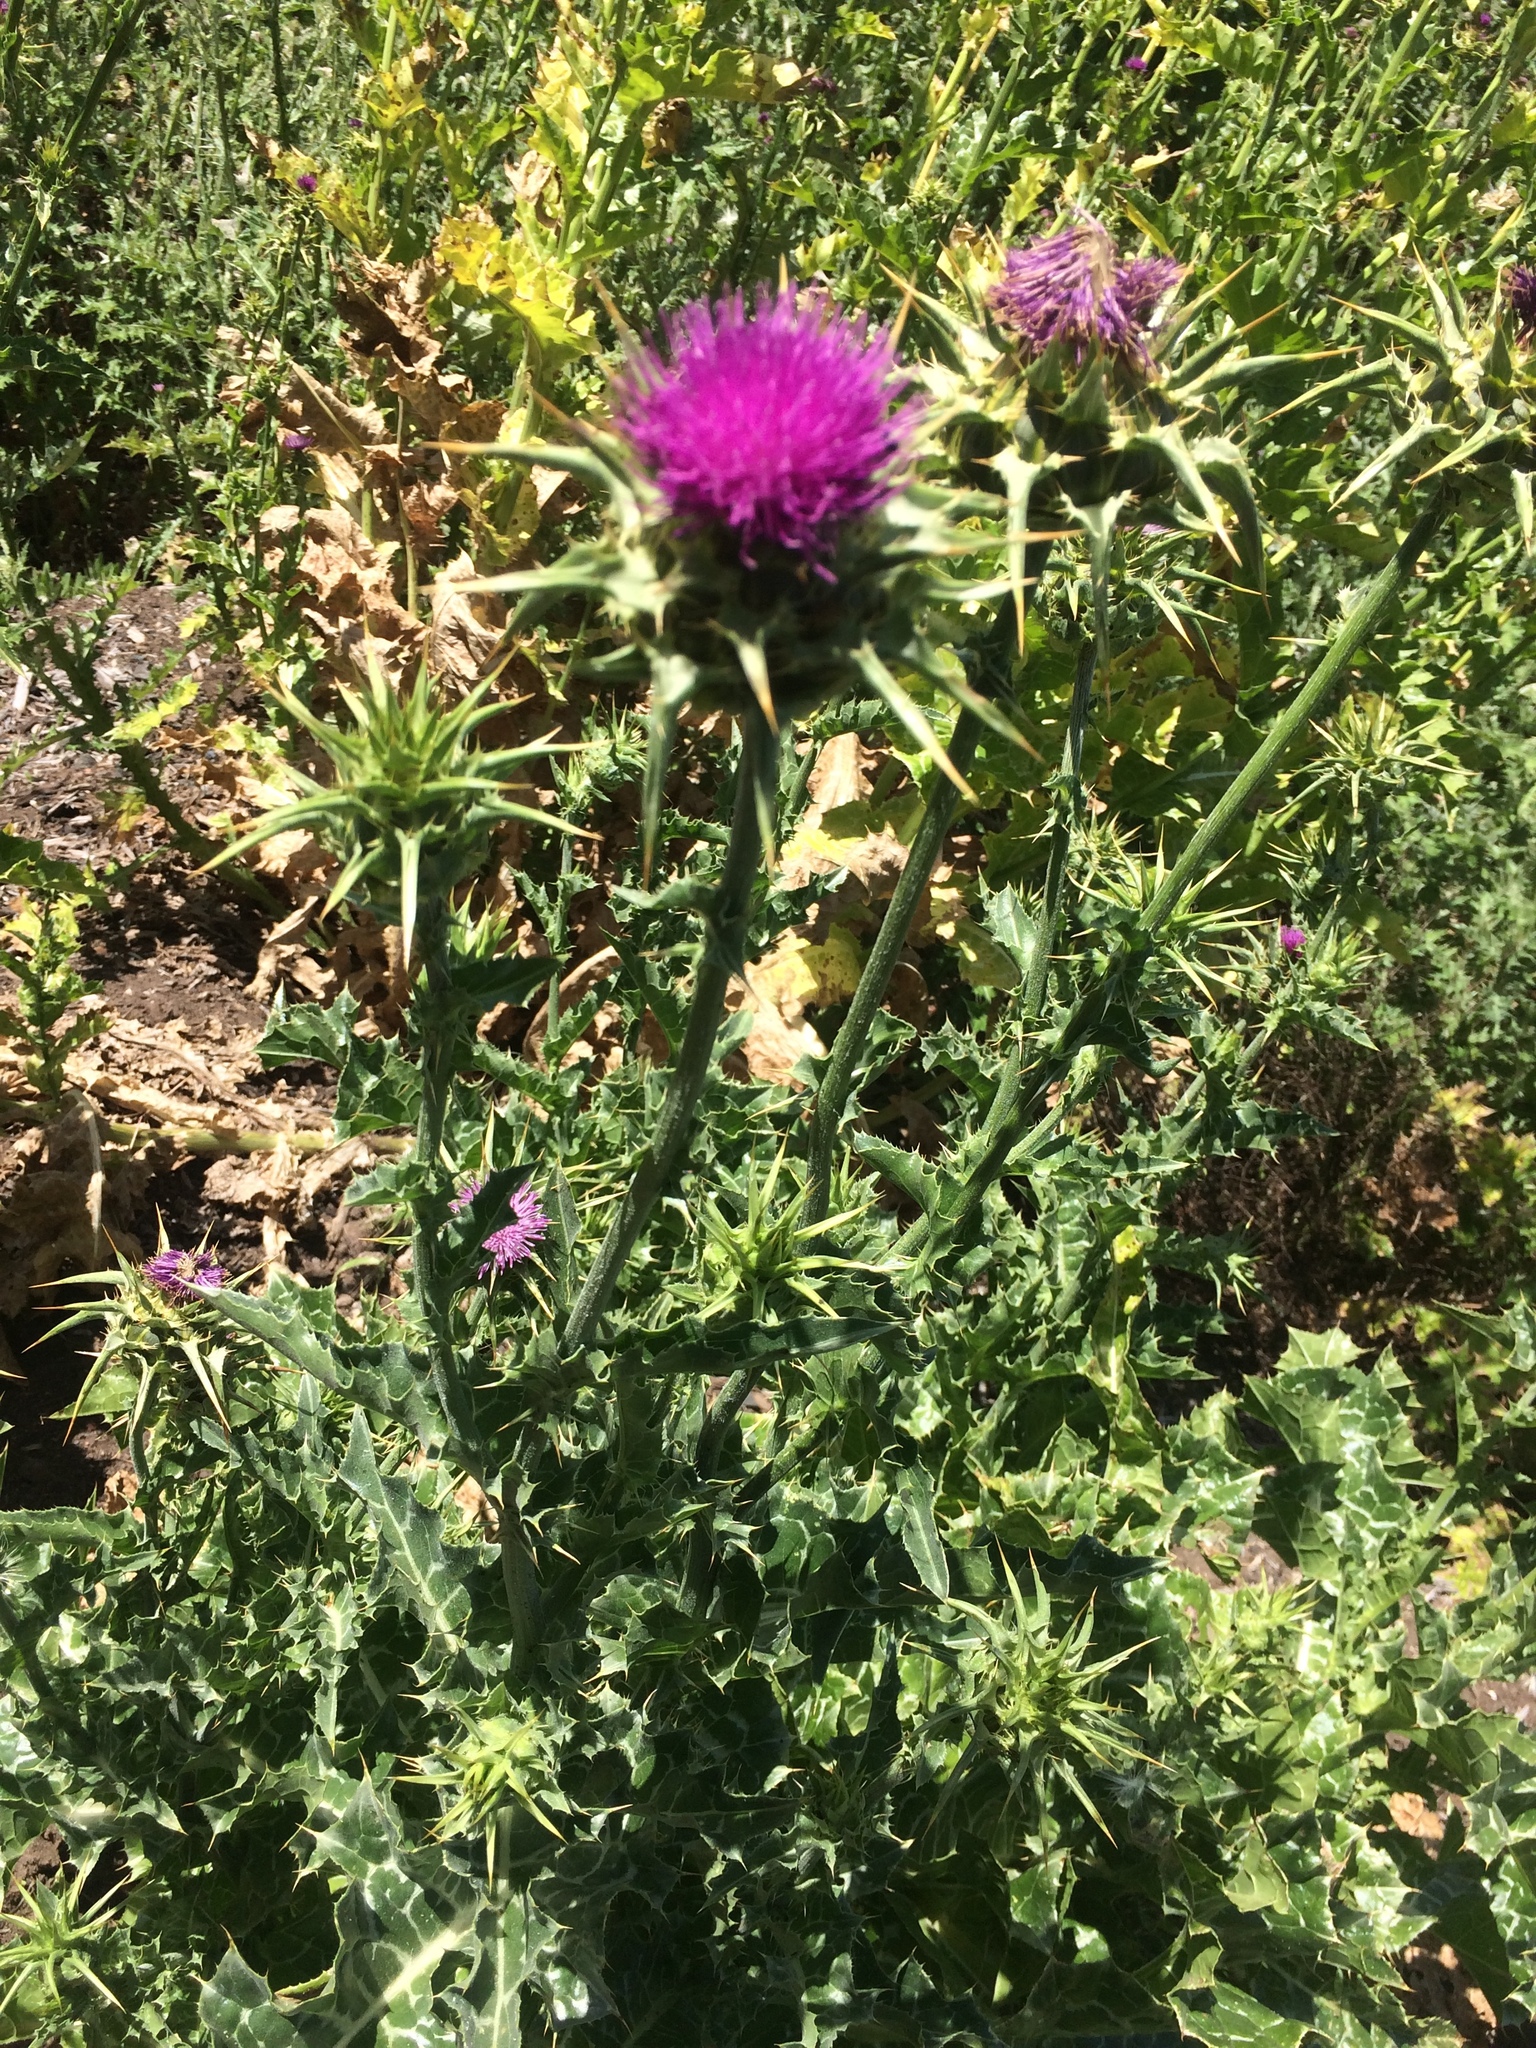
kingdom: Plantae
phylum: Tracheophyta
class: Magnoliopsida
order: Asterales
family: Asteraceae
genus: Silybum
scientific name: Silybum marianum
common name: Milk thistle
